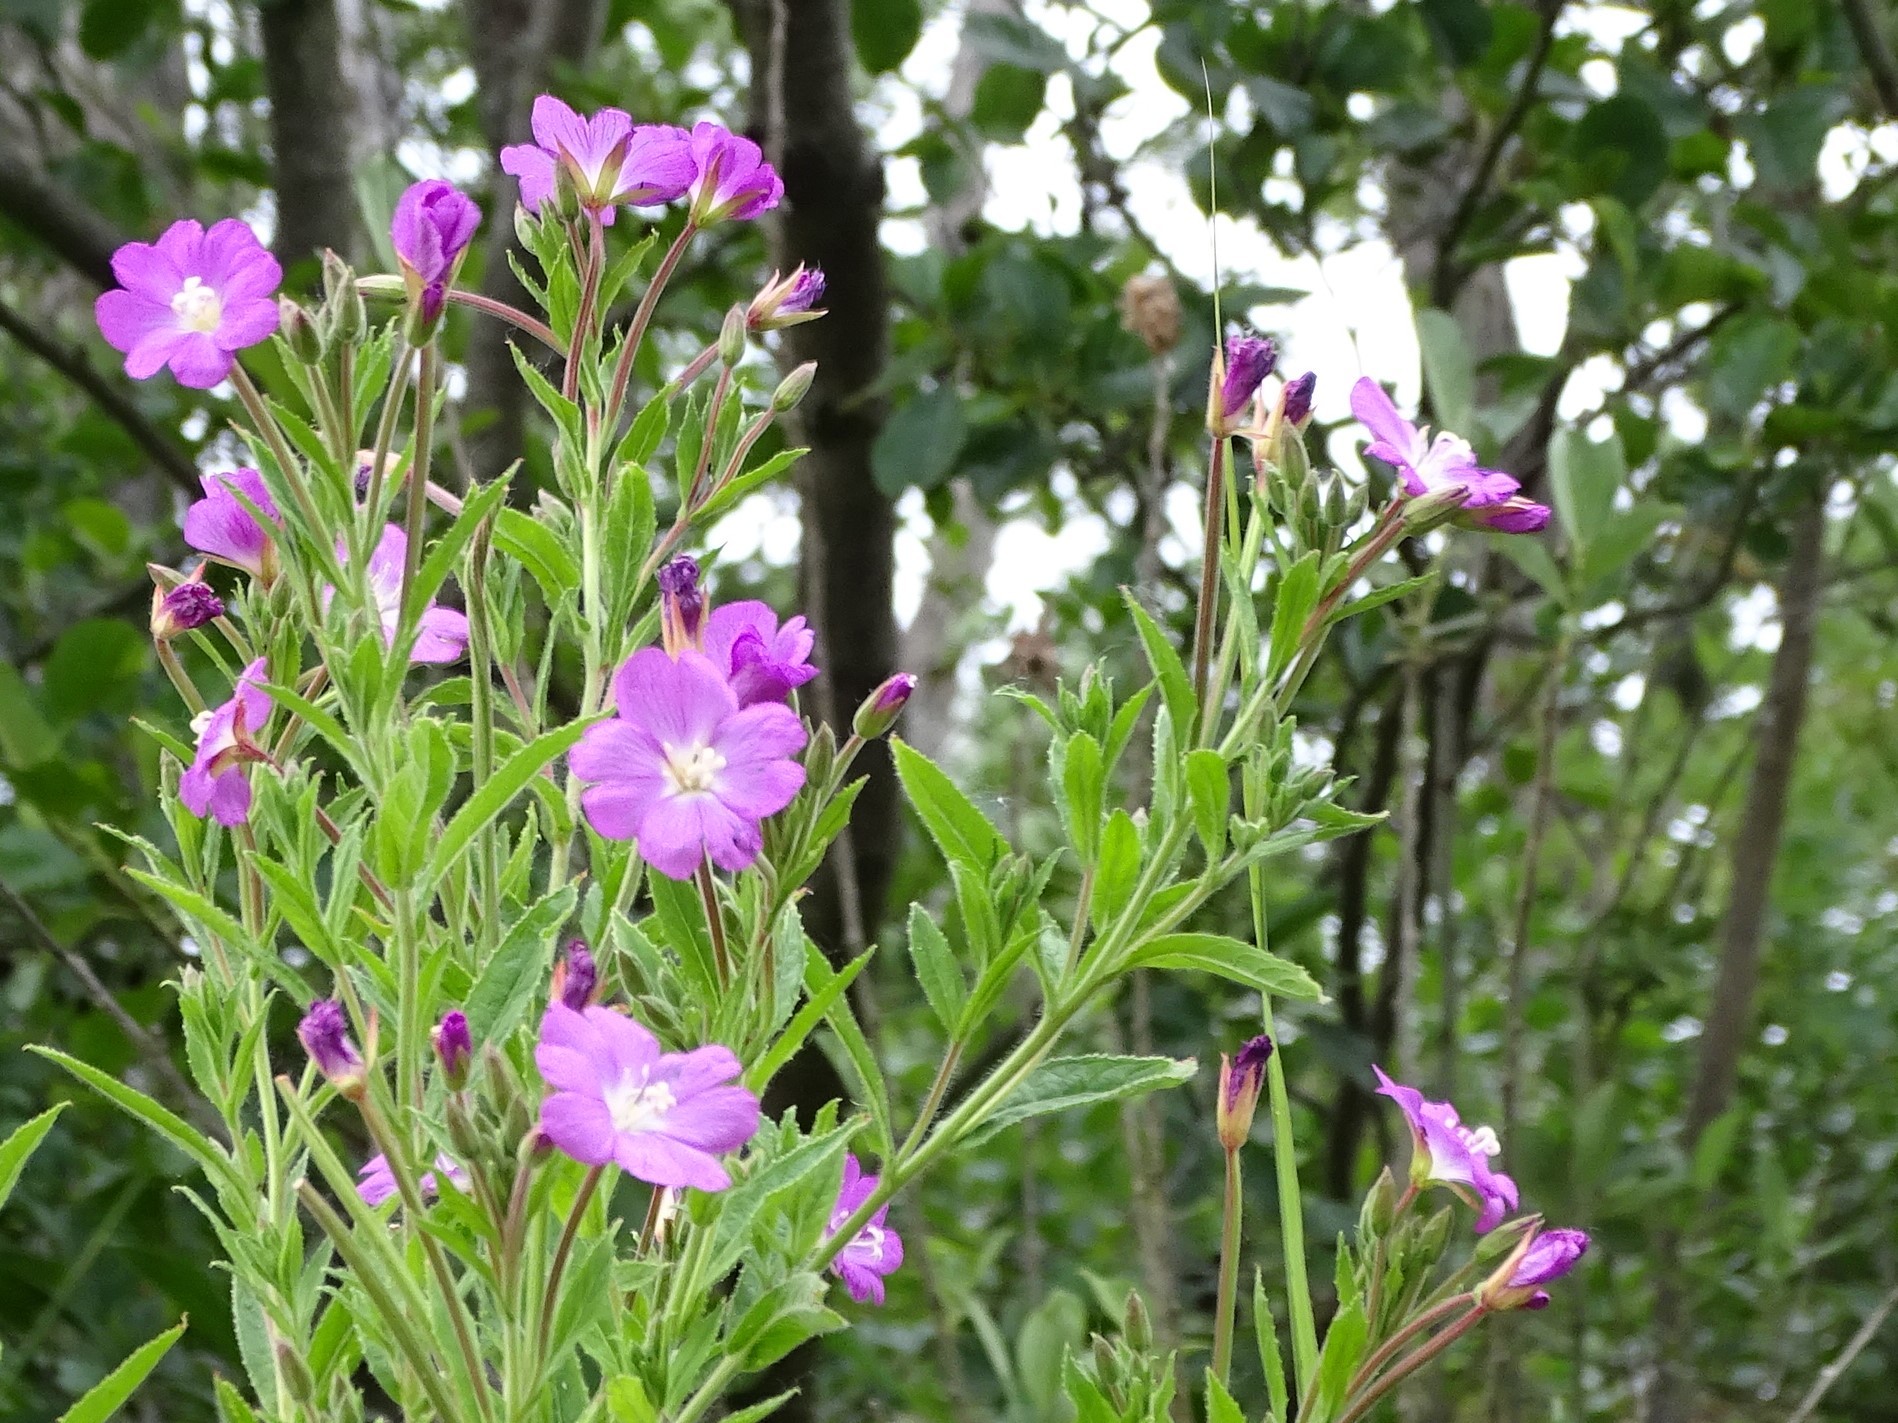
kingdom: Plantae
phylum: Tracheophyta
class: Magnoliopsida
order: Myrtales
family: Onagraceae
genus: Epilobium
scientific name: Epilobium hirsutum
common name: Great willowherb
